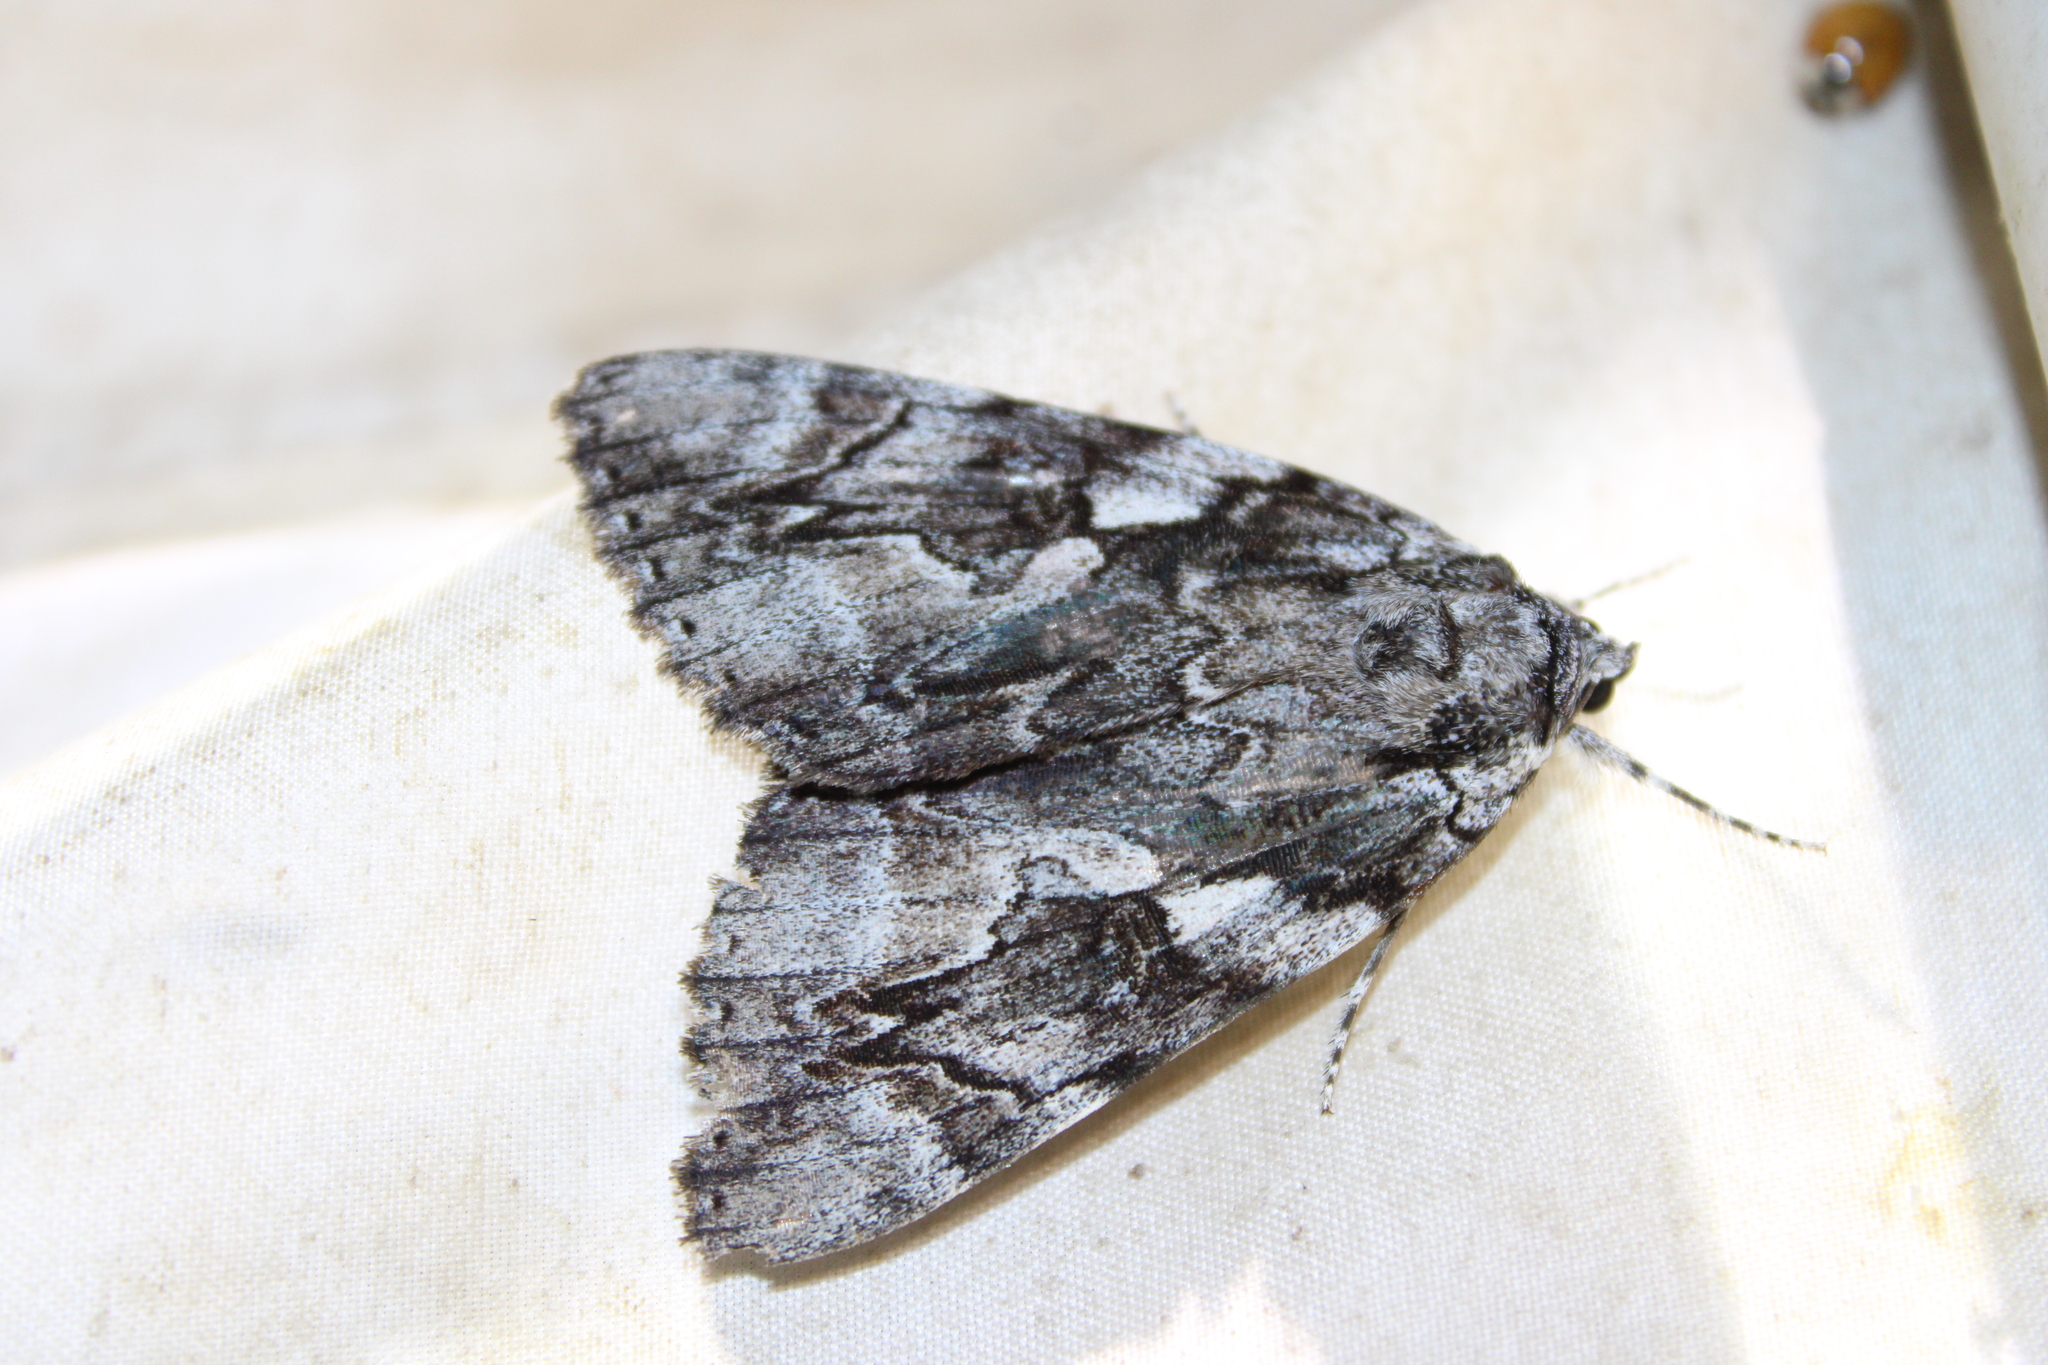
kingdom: Animalia
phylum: Arthropoda
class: Insecta
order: Lepidoptera
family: Erebidae
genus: Catocala
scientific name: Catocala dejecta
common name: Dejected underwing
